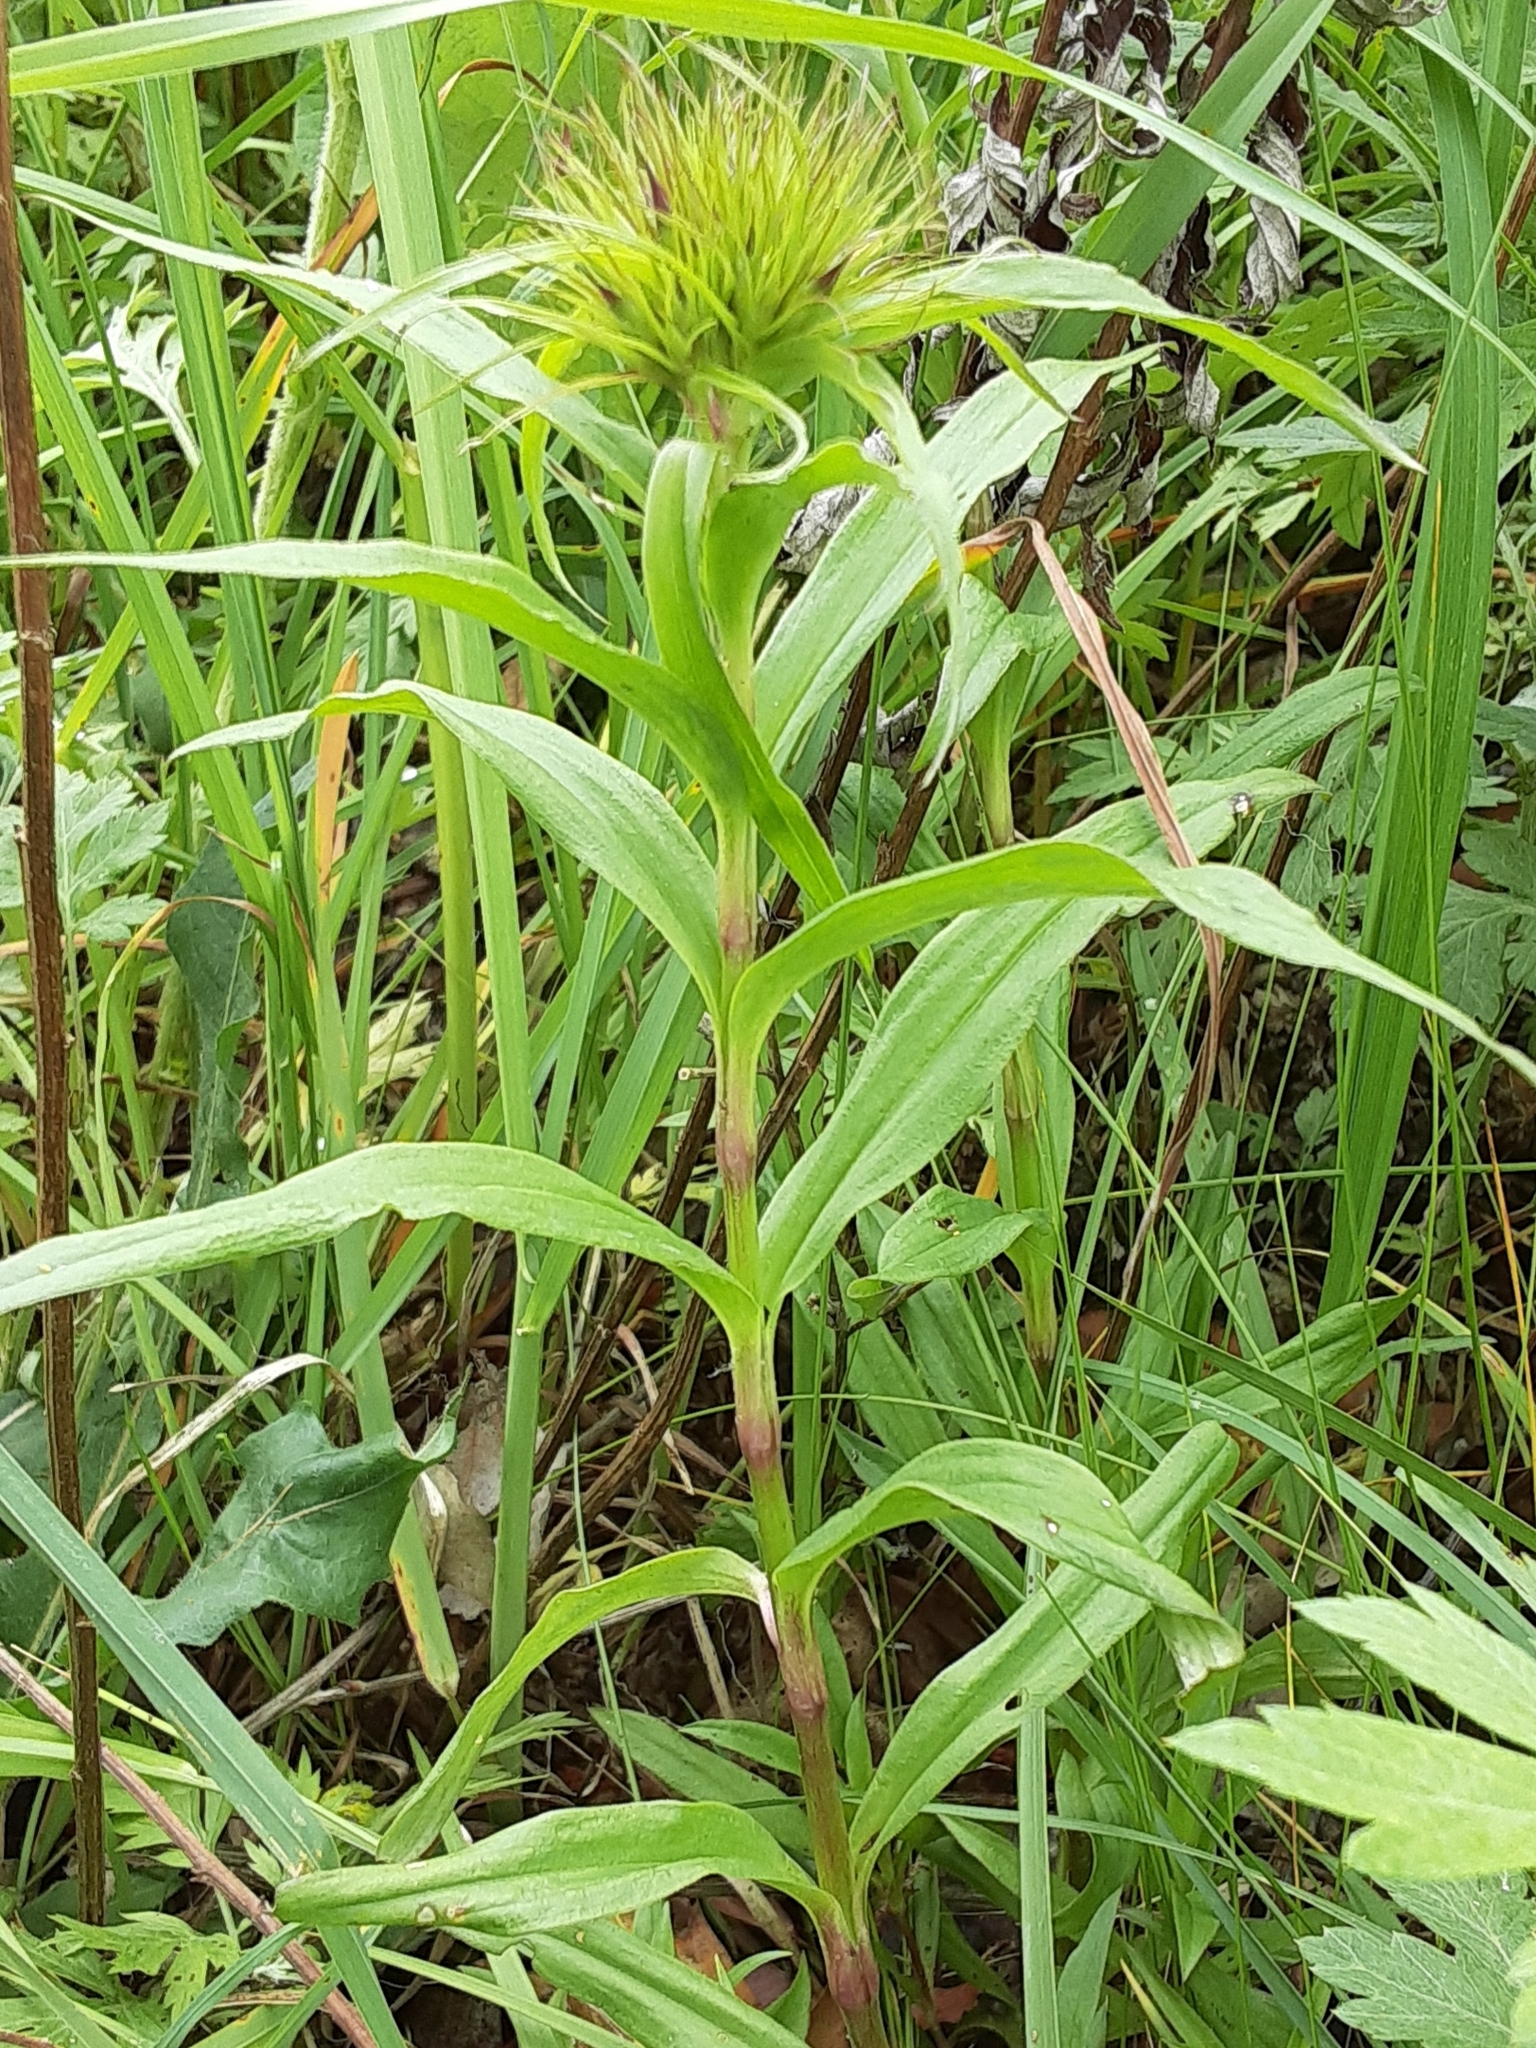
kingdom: Plantae
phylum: Tracheophyta
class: Magnoliopsida
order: Caryophyllales
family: Caryophyllaceae
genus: Dianthus
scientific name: Dianthus barbatus
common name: Sweet-william
